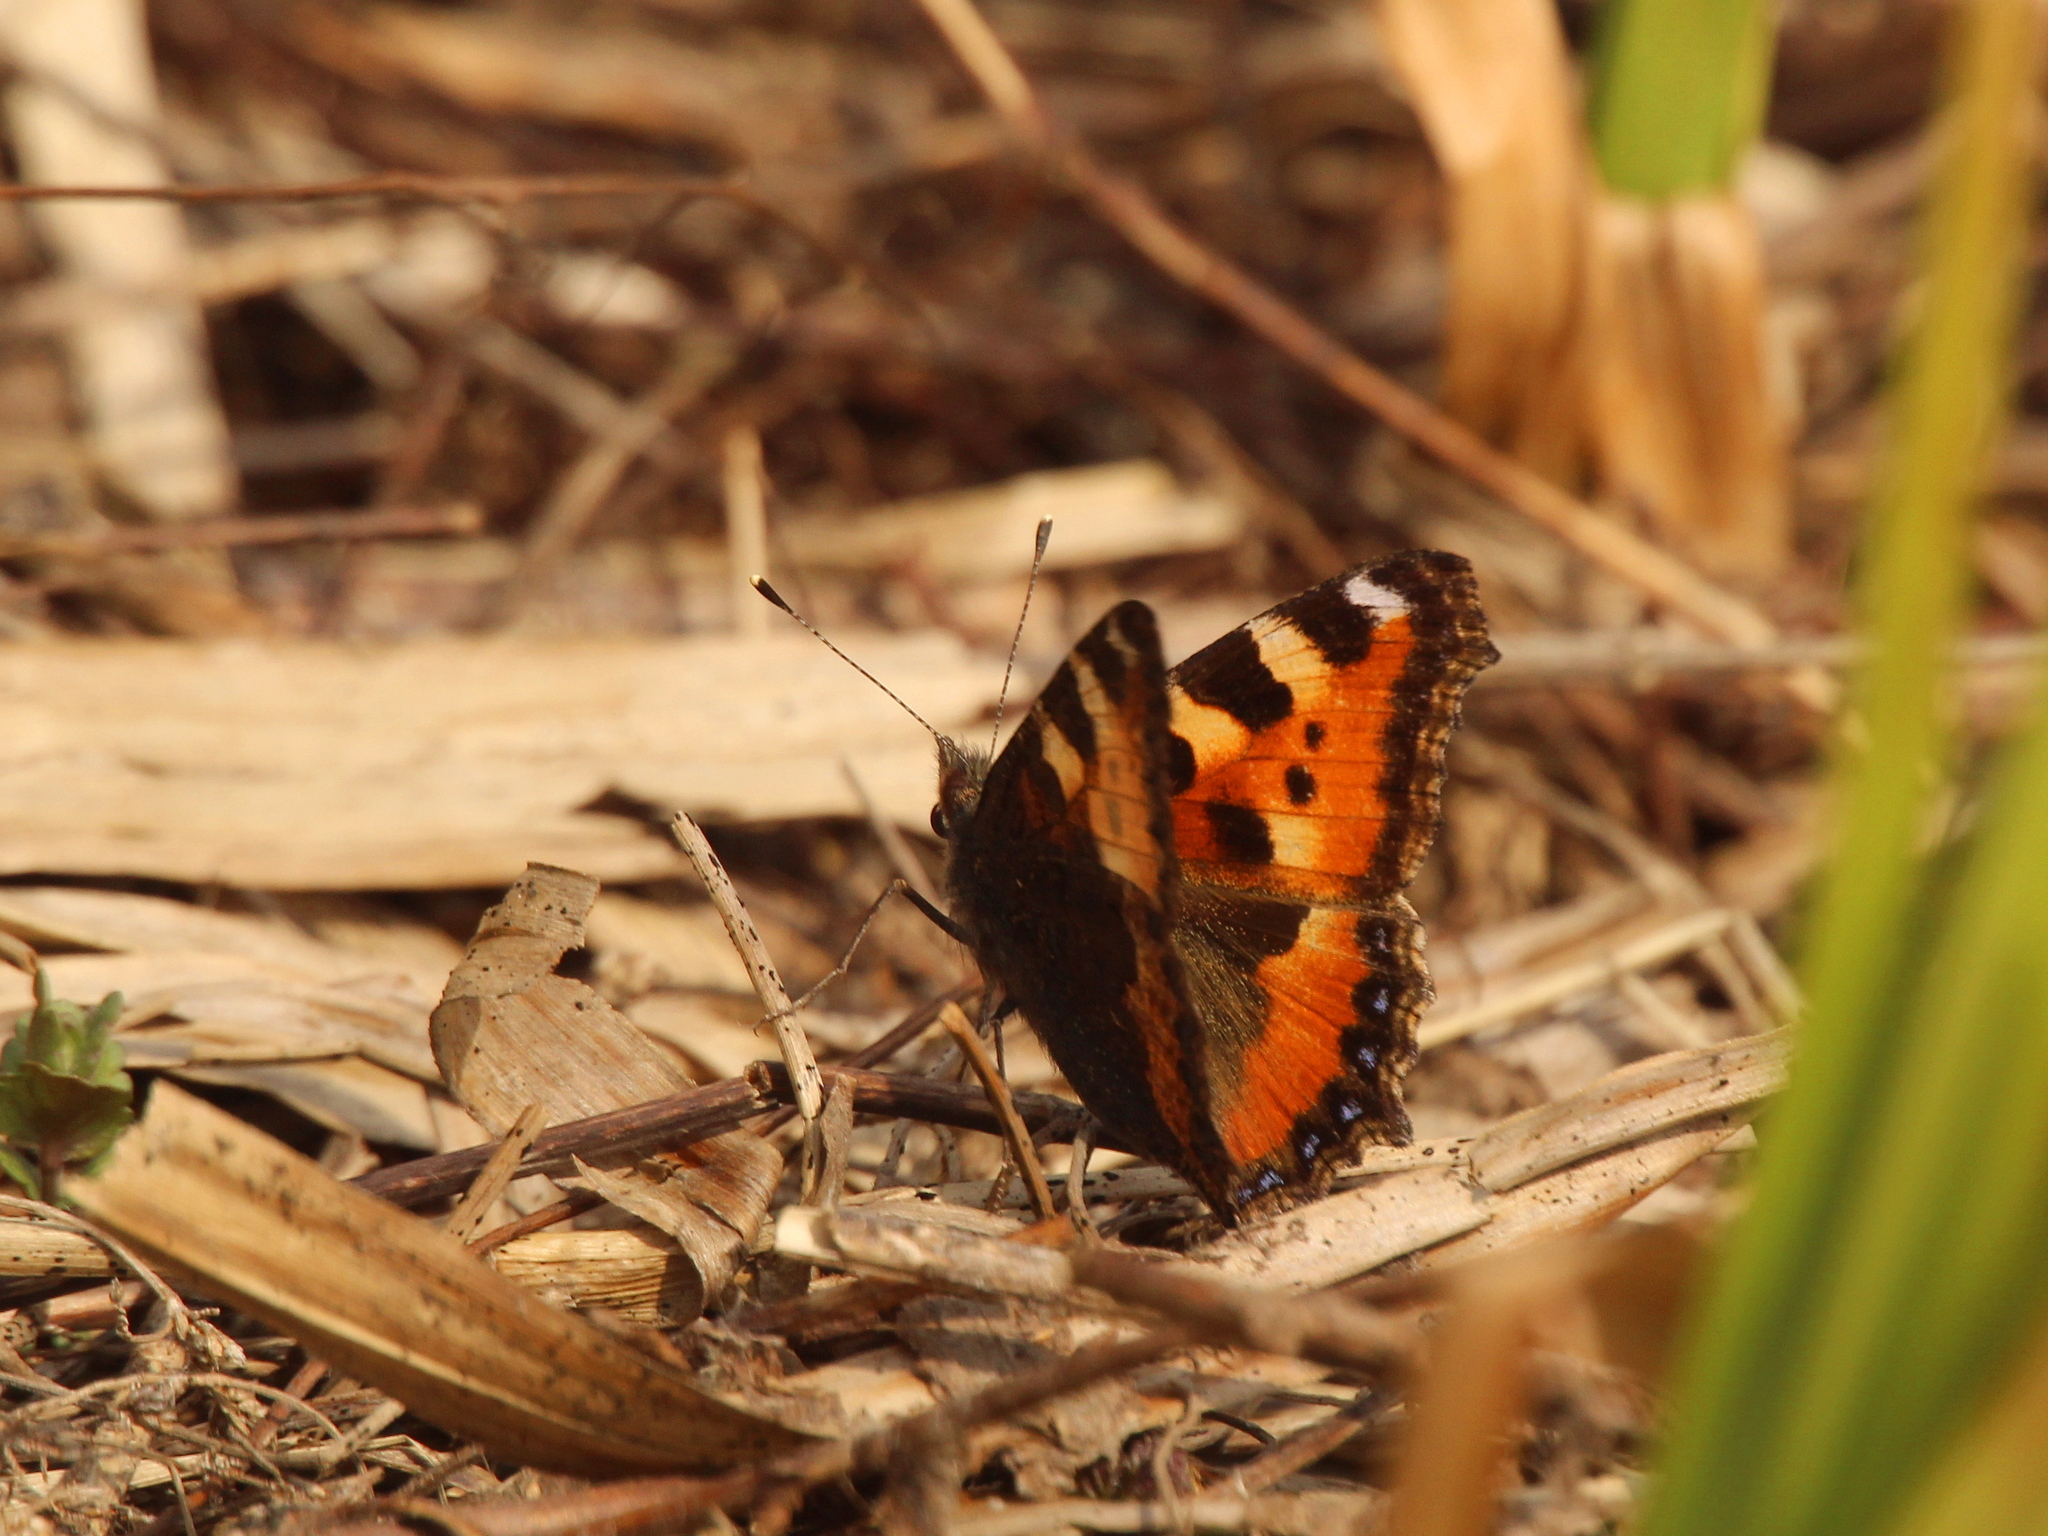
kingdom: Animalia
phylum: Arthropoda
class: Insecta
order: Lepidoptera
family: Nymphalidae
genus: Aglais
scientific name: Aglais urticae
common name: Small tortoiseshell
